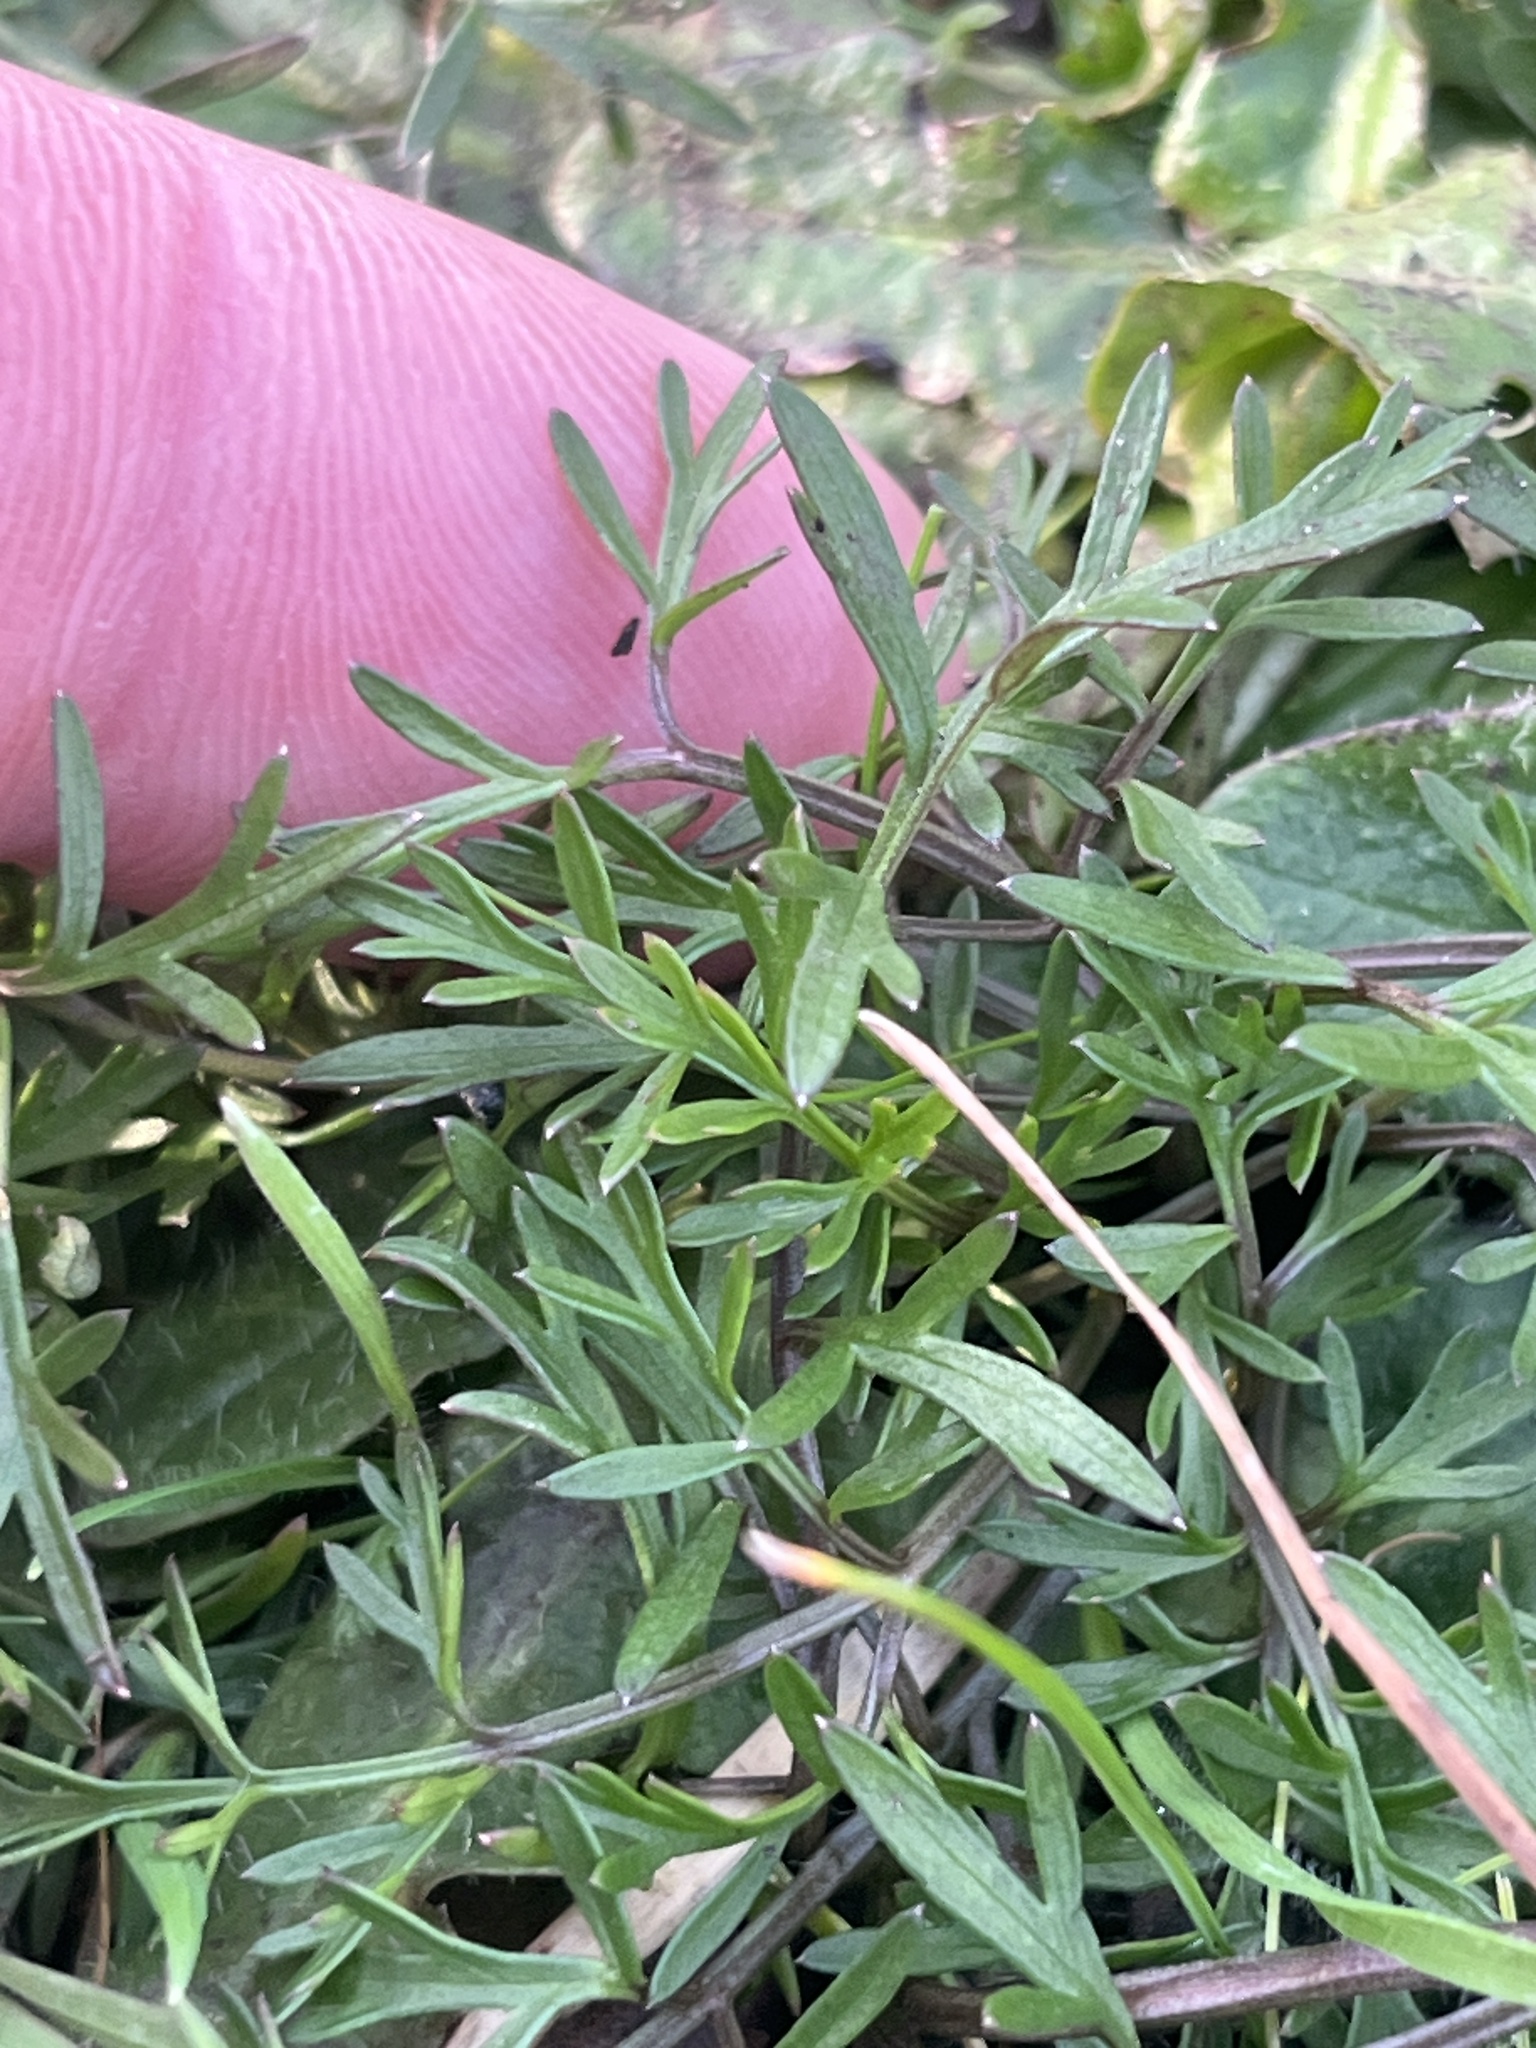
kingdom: Plantae
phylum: Tracheophyta
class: Magnoliopsida
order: Apiales
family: Apiaceae
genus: Lomatium
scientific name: Lomatium utriculatum
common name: Fine-leaf desert-parsley
